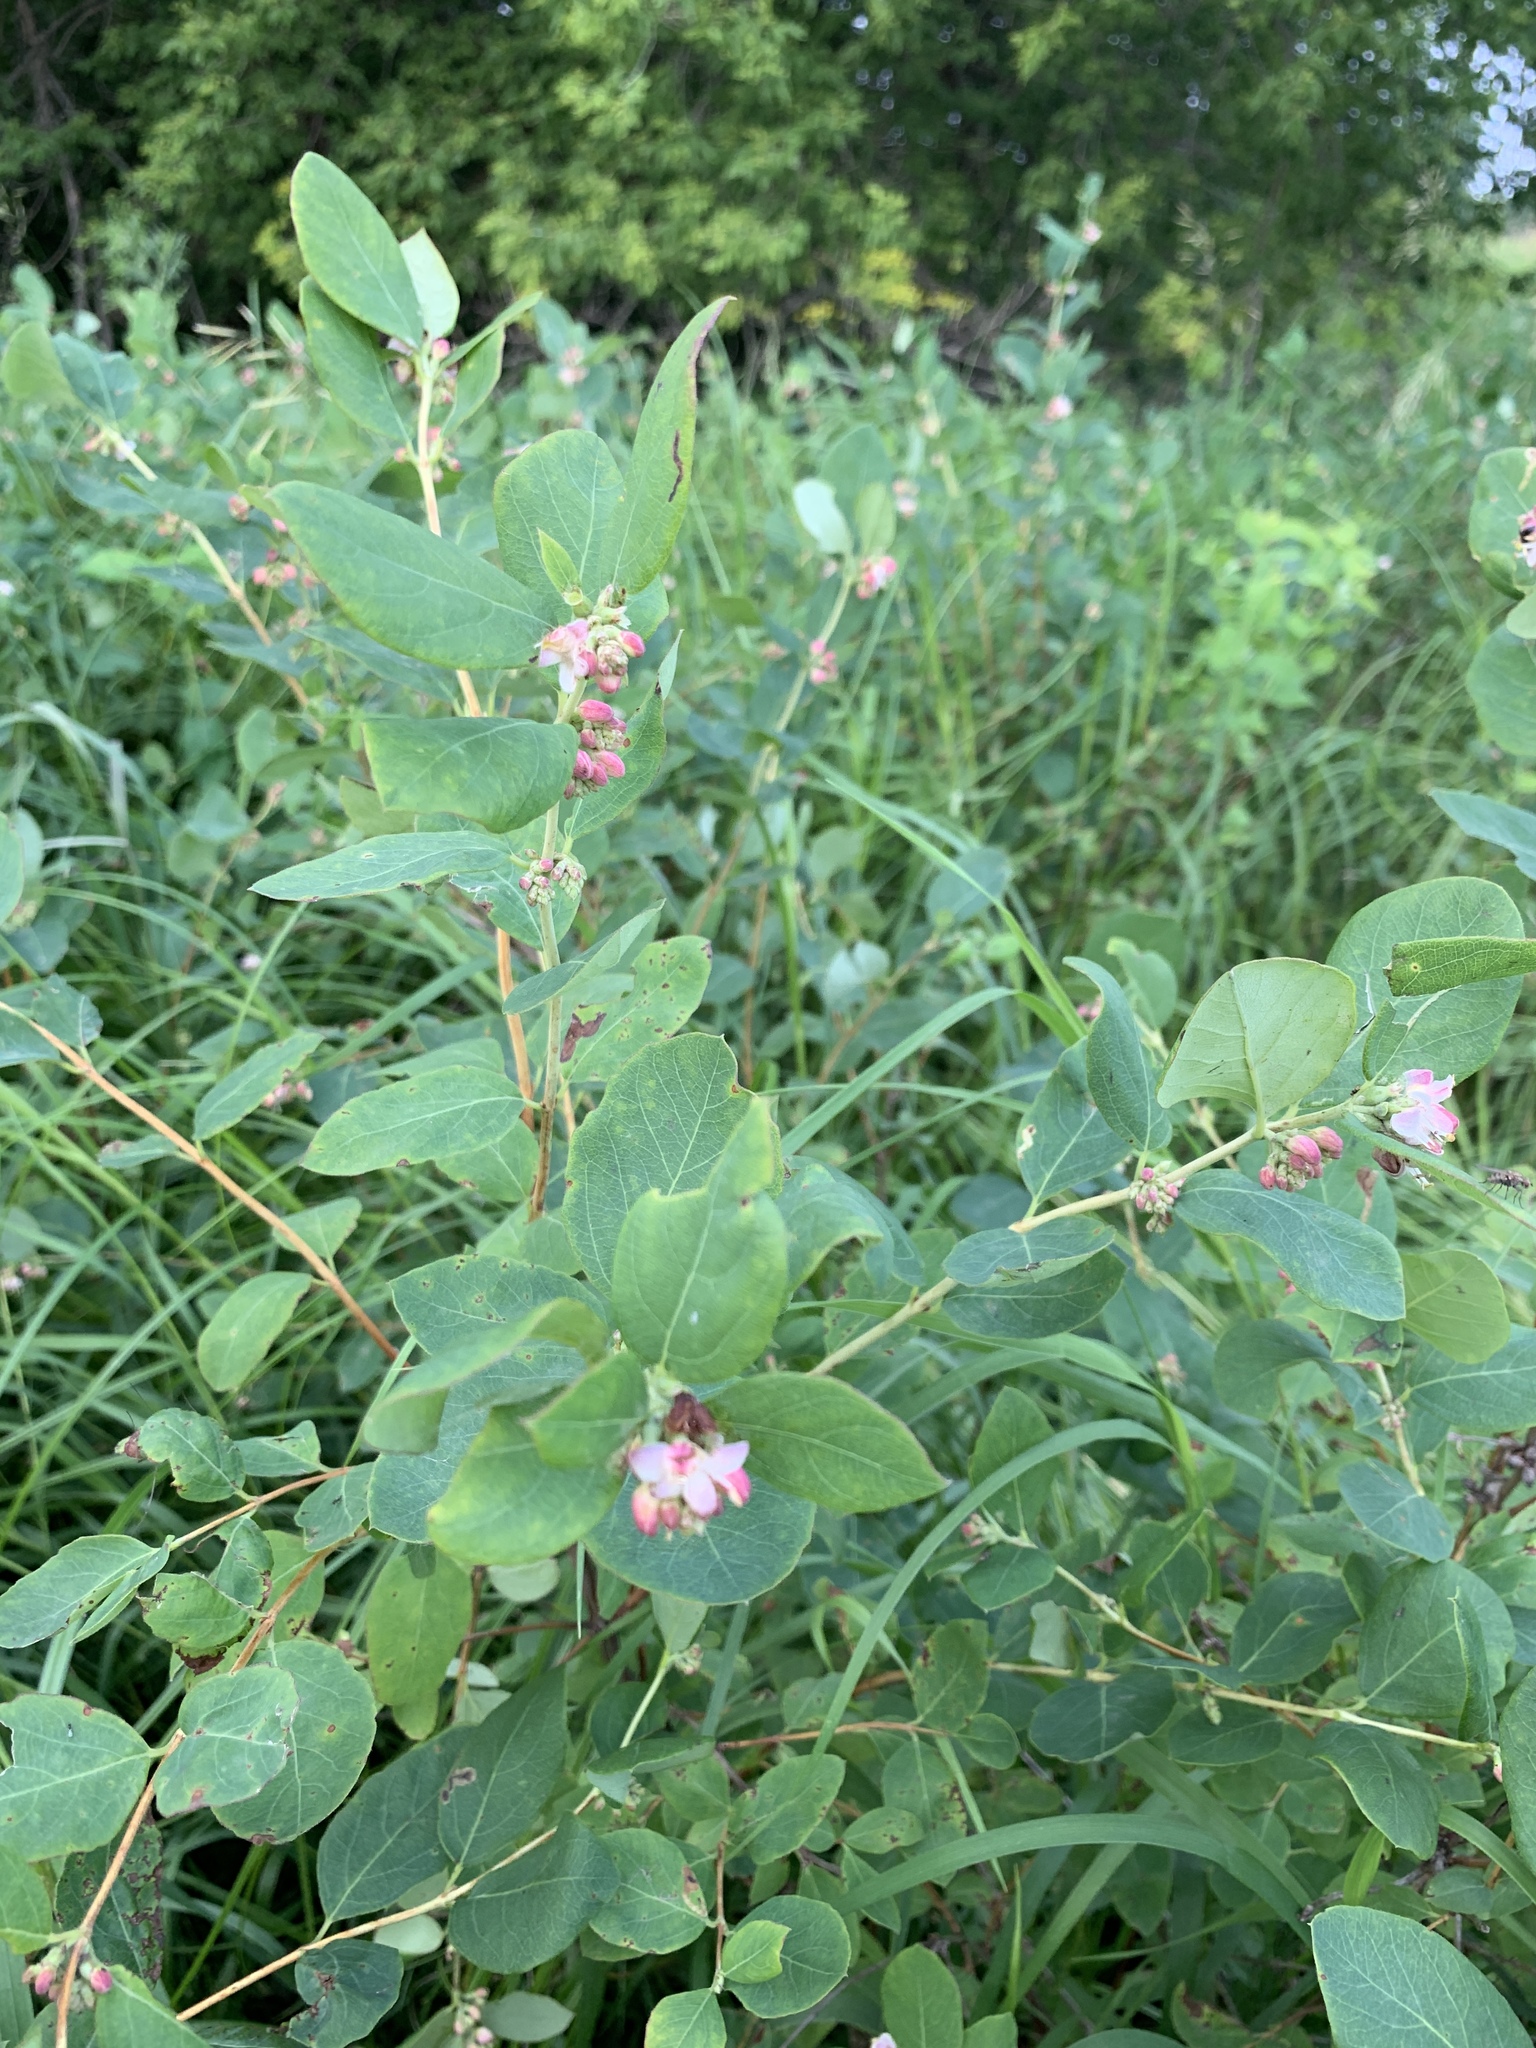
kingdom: Plantae
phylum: Tracheophyta
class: Magnoliopsida
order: Dipsacales
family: Caprifoliaceae
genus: Symphoricarpos
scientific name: Symphoricarpos occidentalis
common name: Wolfberry
